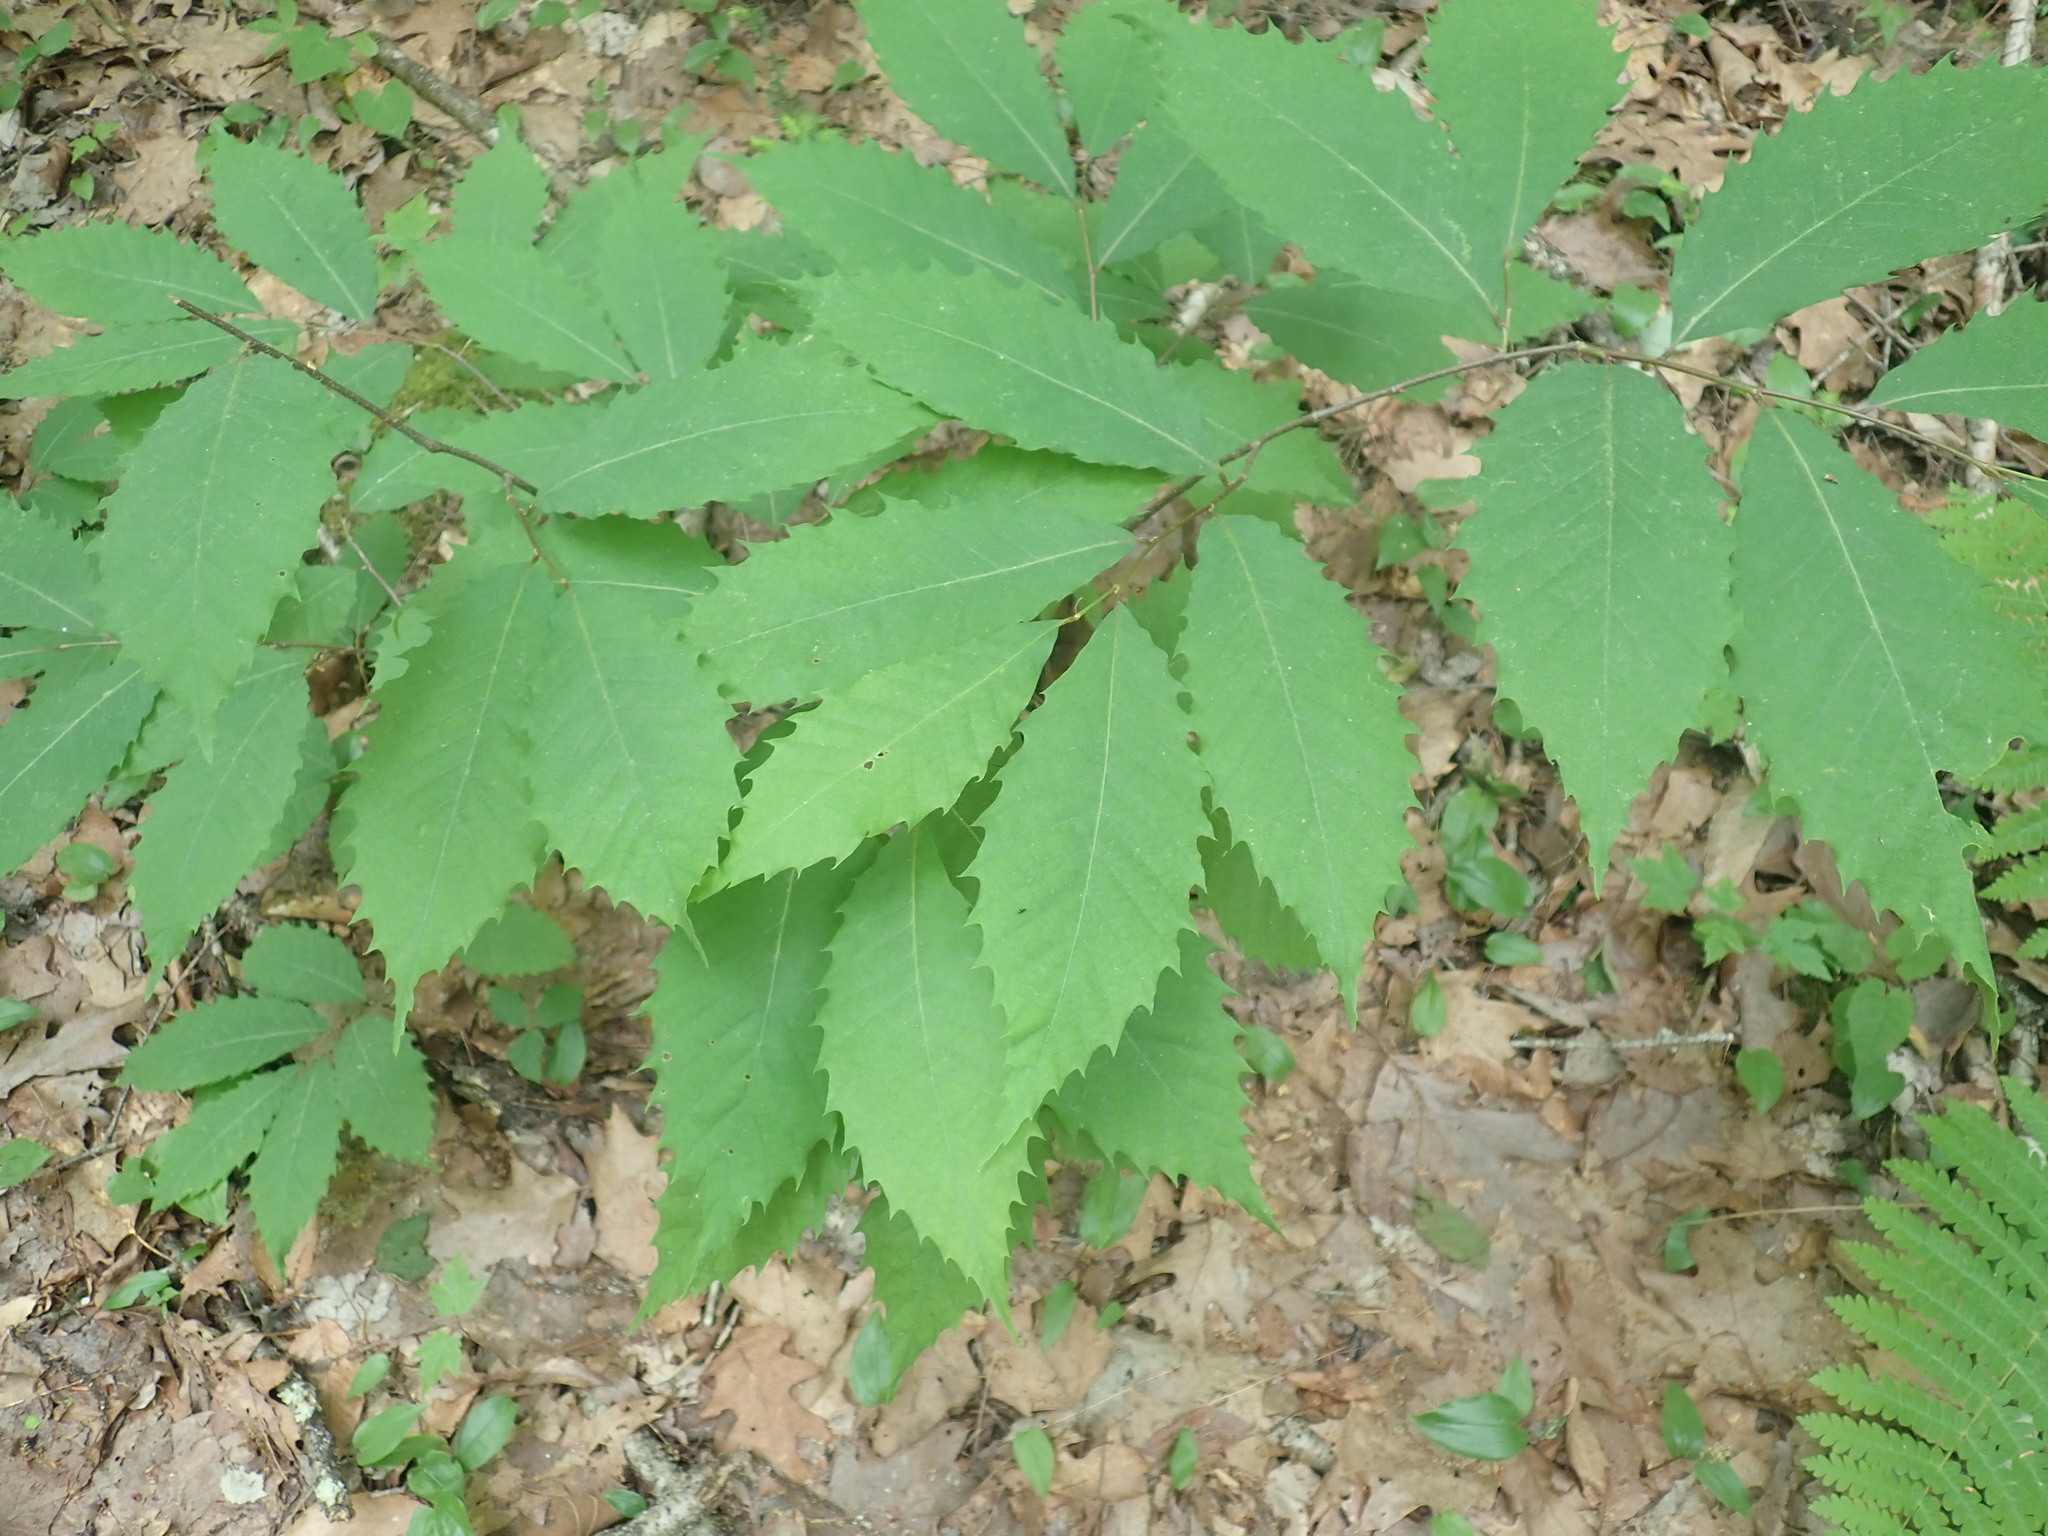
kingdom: Plantae
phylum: Tracheophyta
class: Magnoliopsida
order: Fagales
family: Fagaceae
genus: Castanea
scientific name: Castanea dentata
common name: American chestnut
